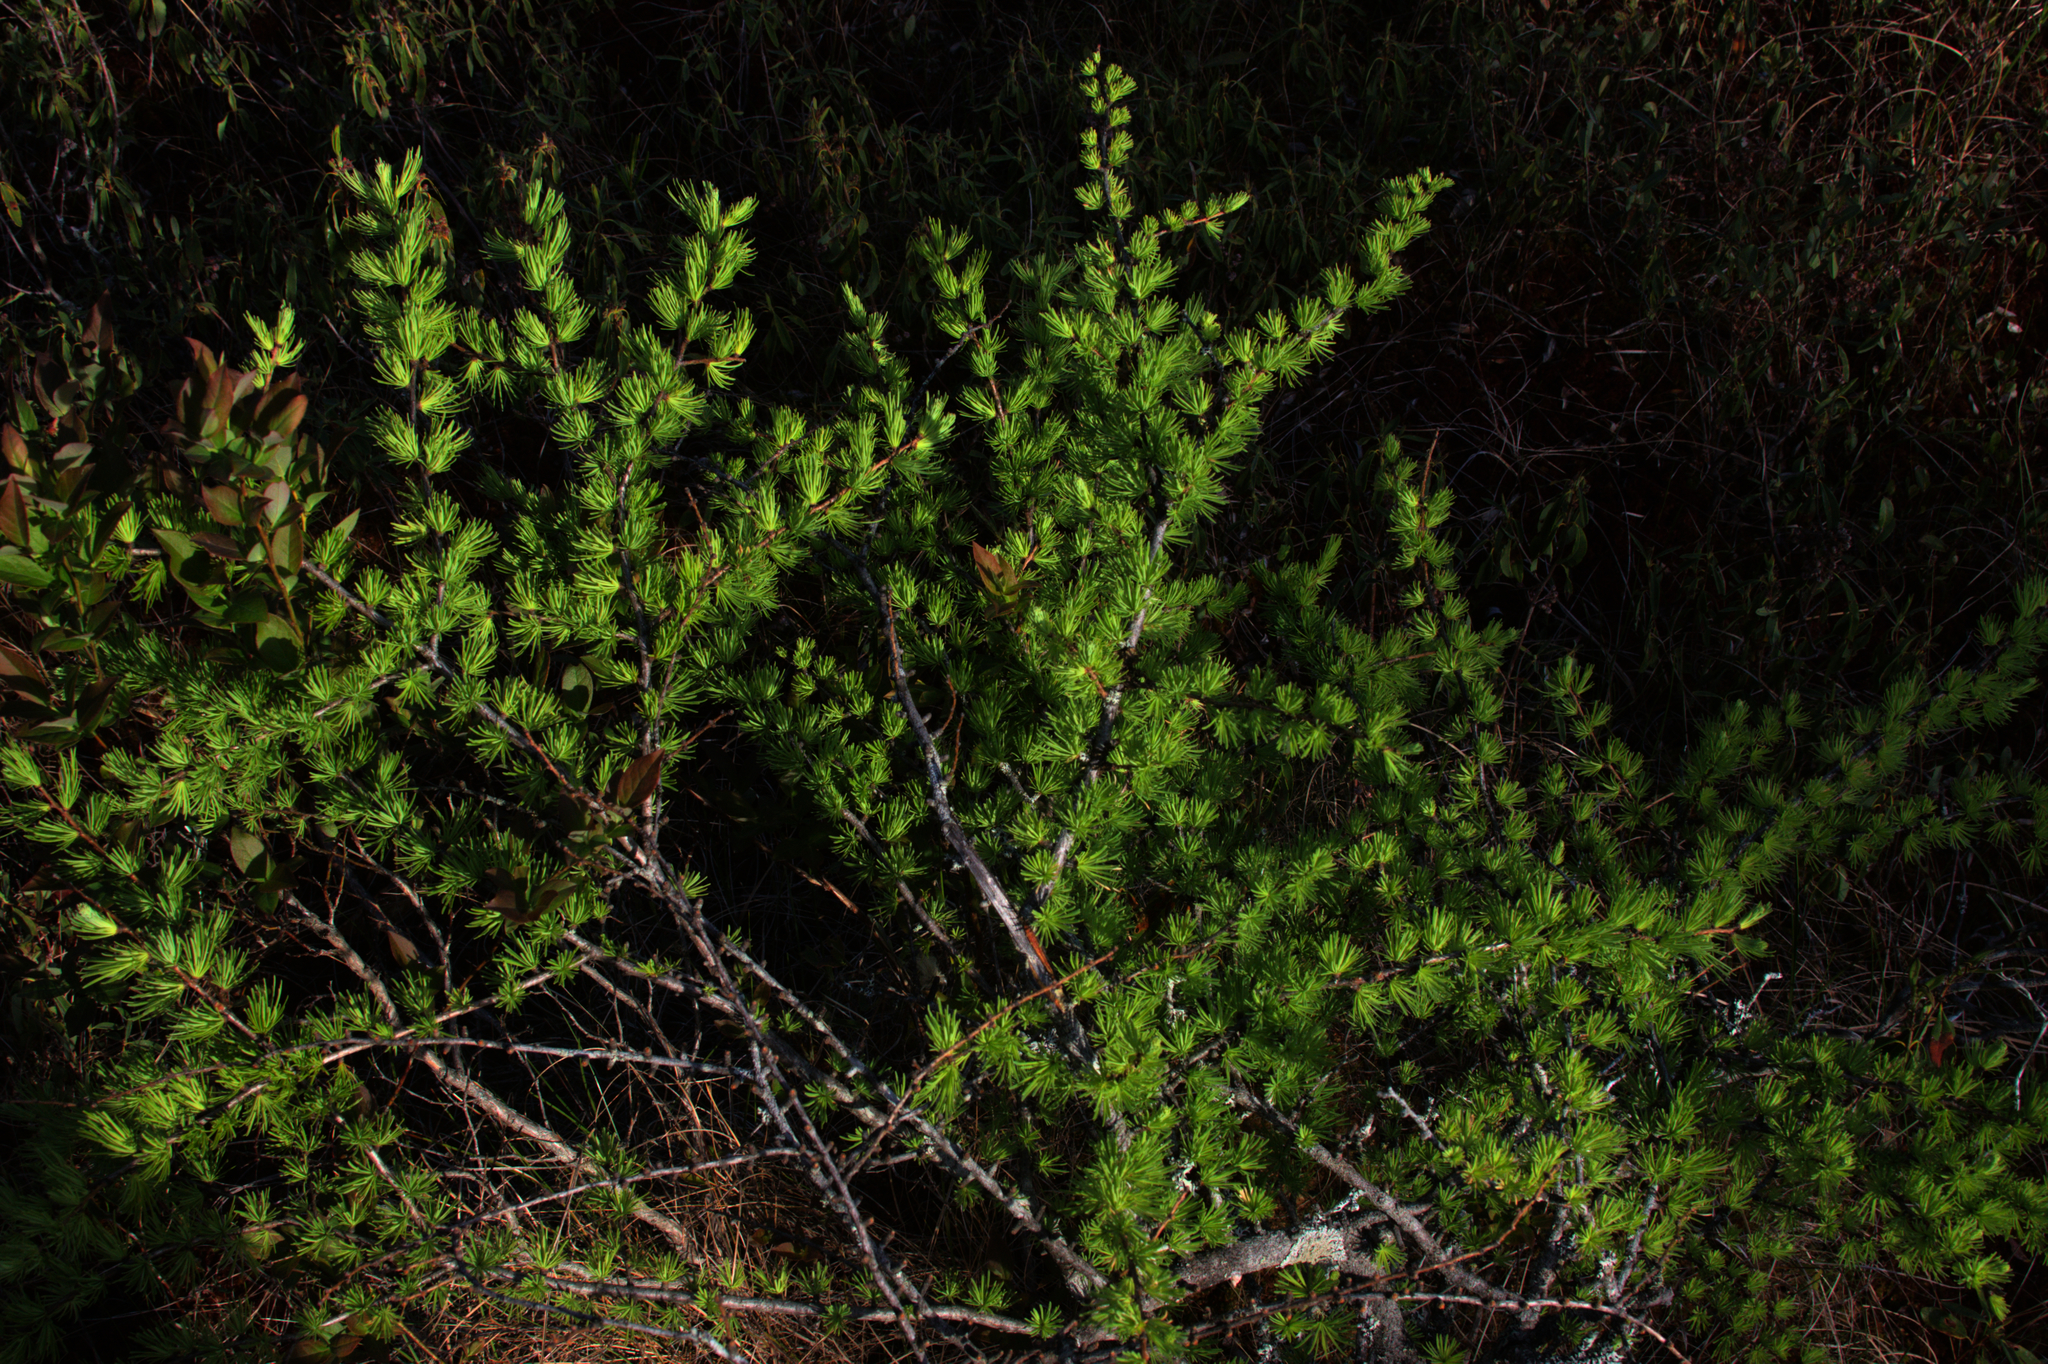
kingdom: Plantae
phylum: Tracheophyta
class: Pinopsida
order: Pinales
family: Pinaceae
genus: Larix
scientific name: Larix laricina
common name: American larch
